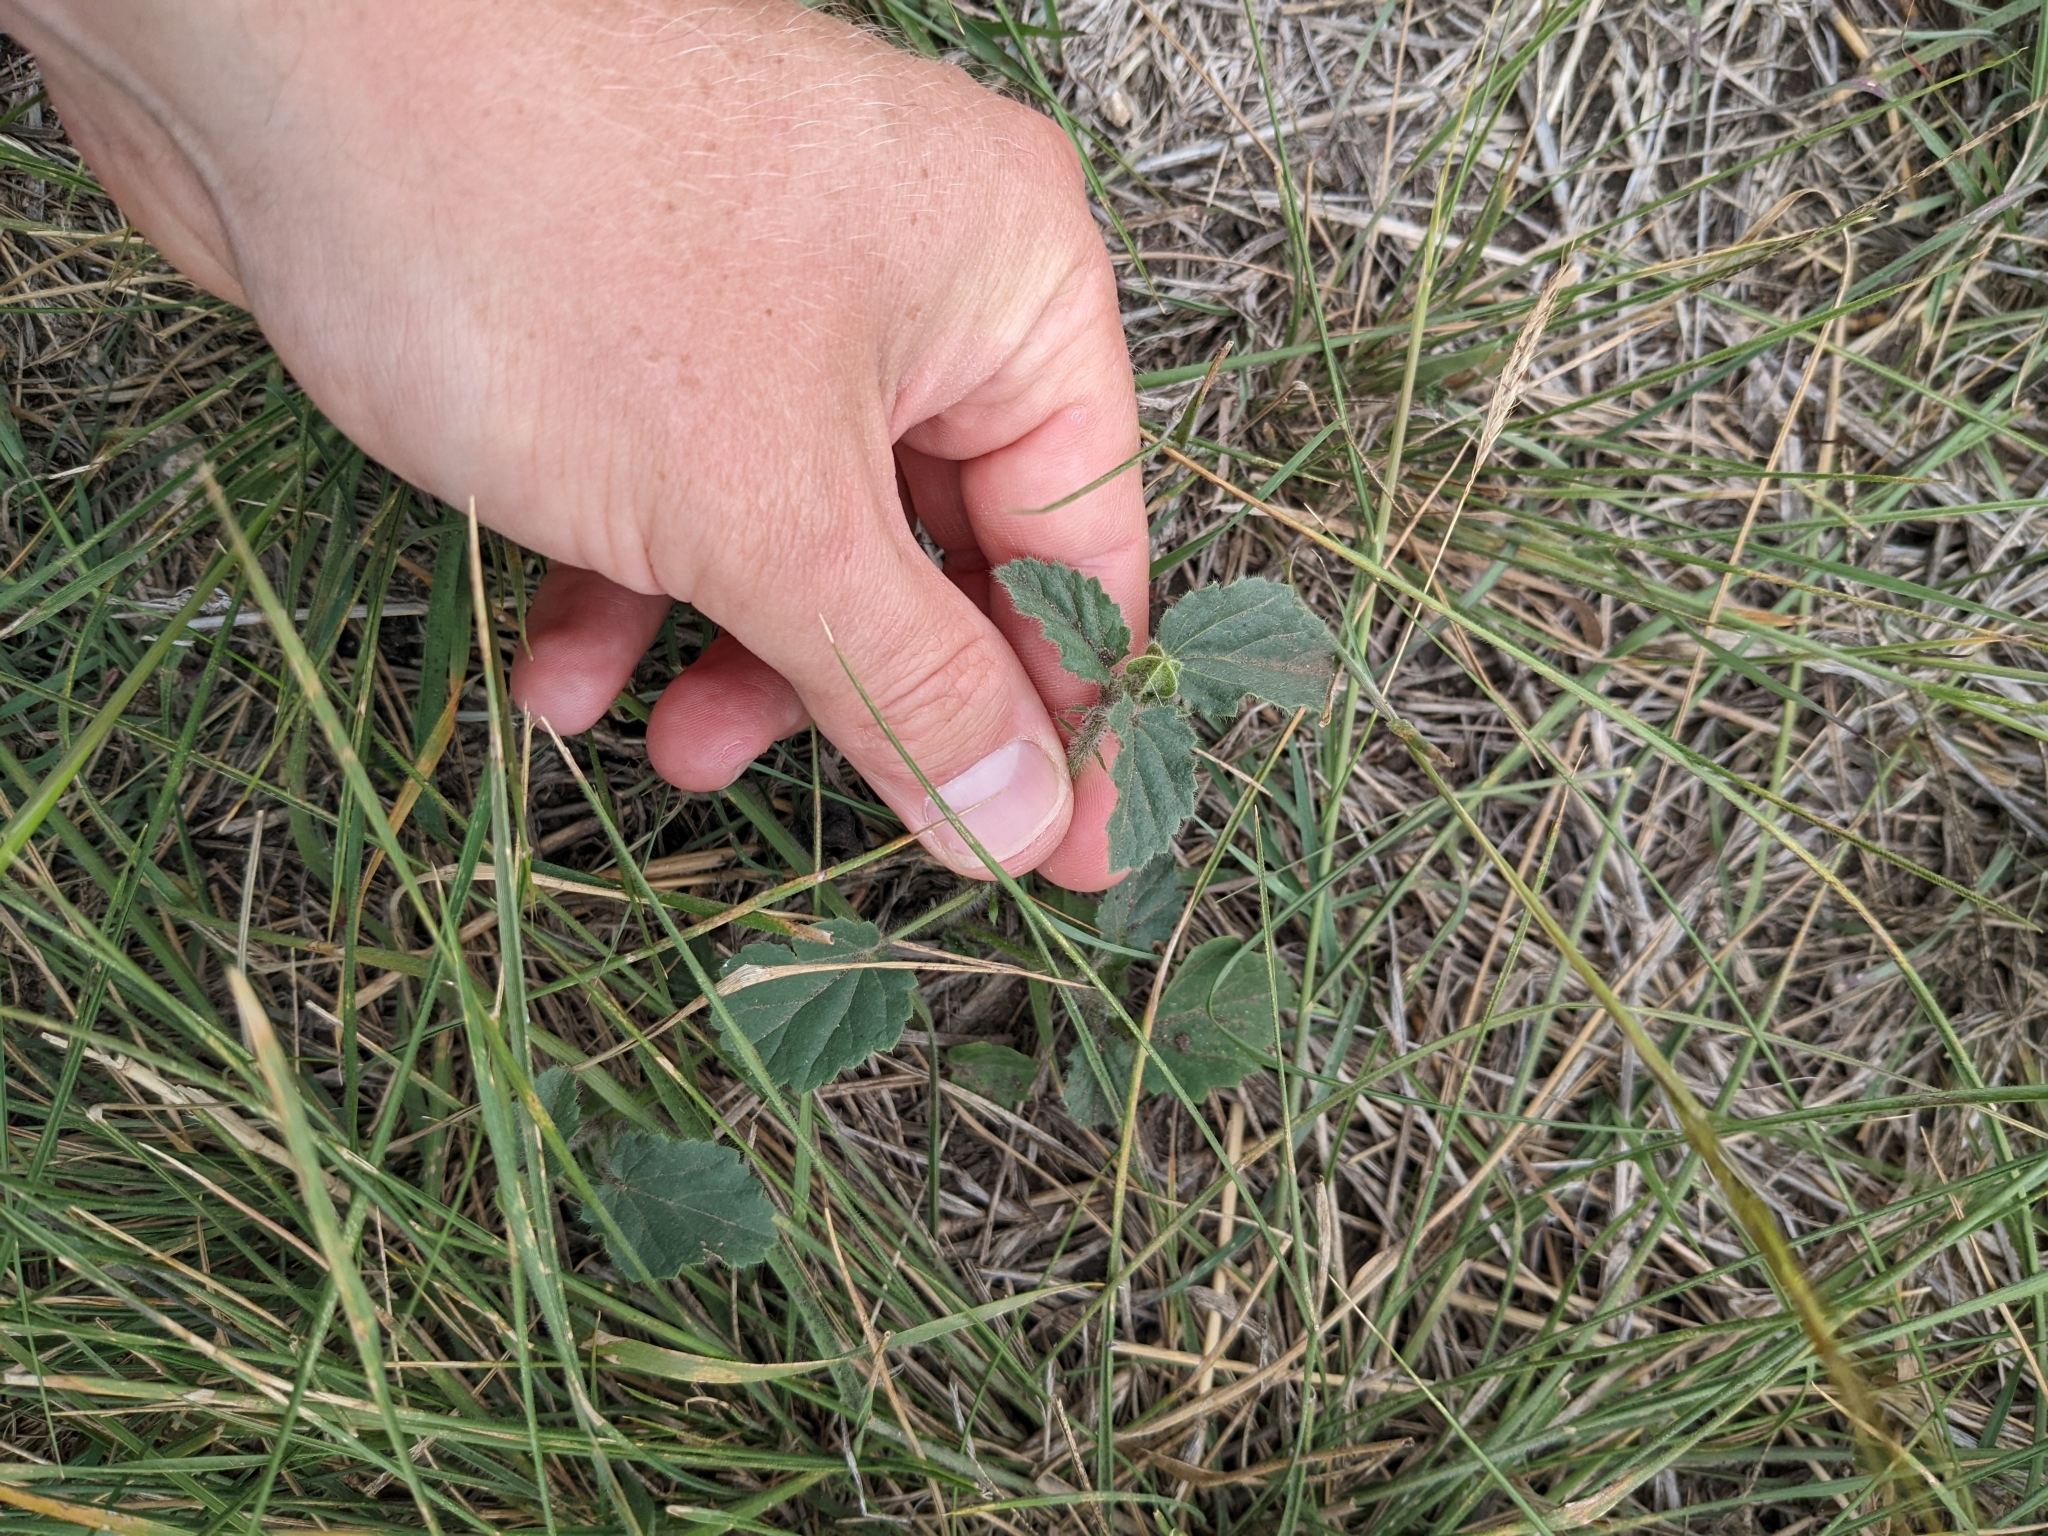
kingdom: Plantae
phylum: Tracheophyta
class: Magnoliopsida
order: Malvales
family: Malvaceae
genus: Rhynchosida
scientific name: Rhynchosida physocalyx
